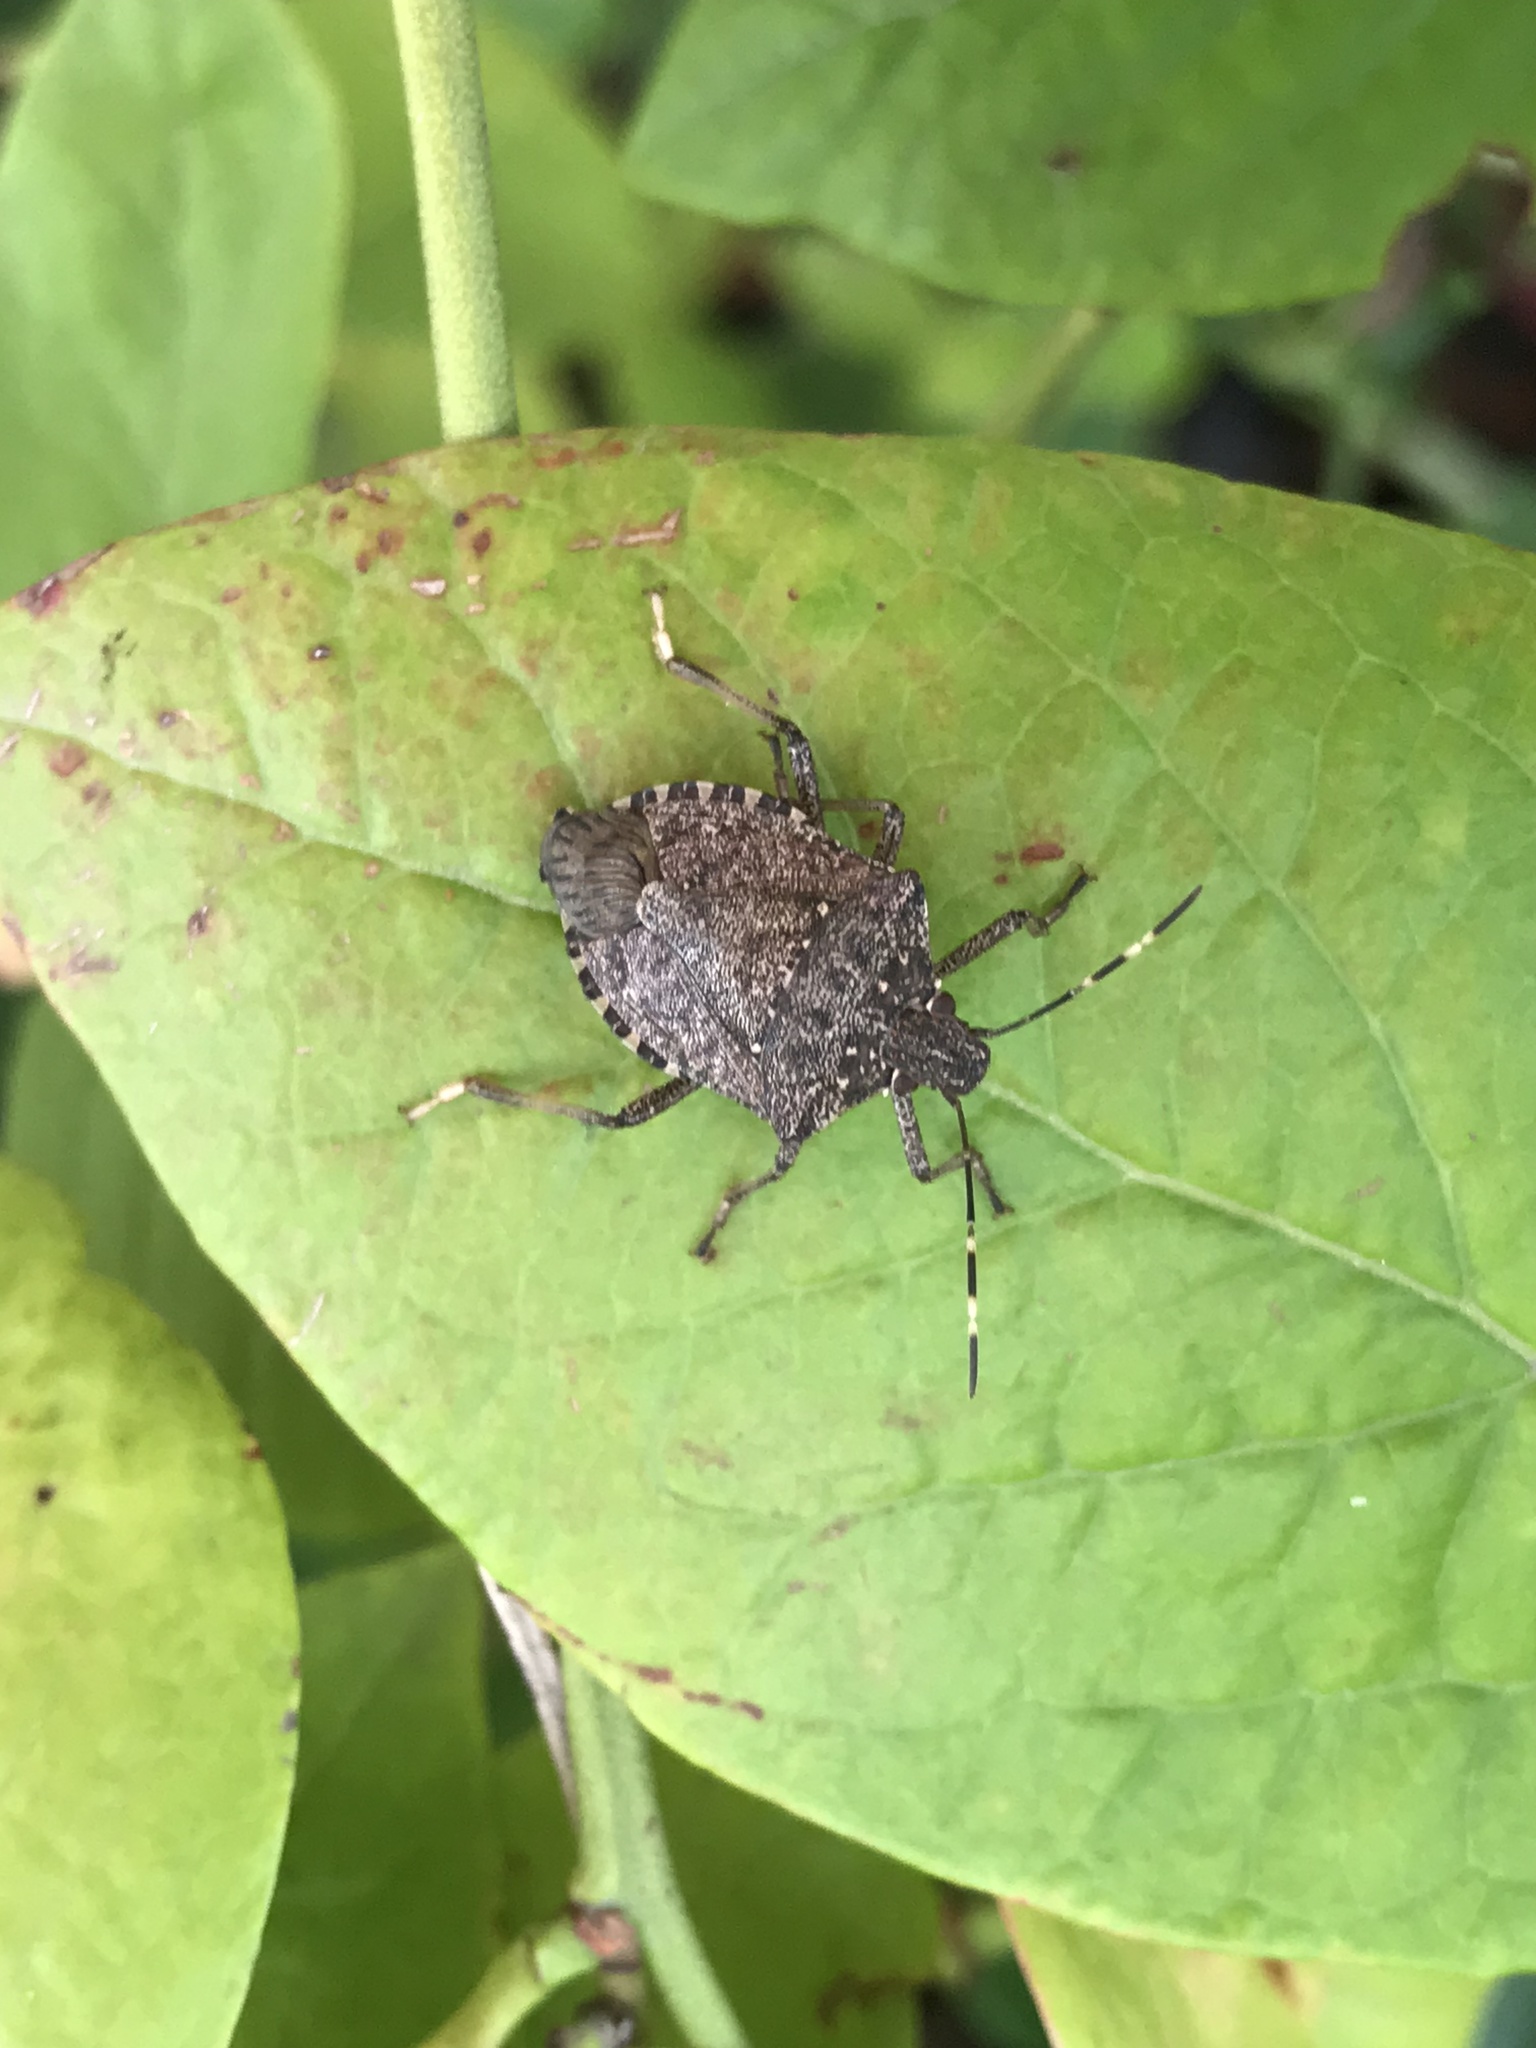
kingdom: Animalia
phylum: Arthropoda
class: Insecta
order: Hemiptera
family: Pentatomidae
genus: Halyomorpha
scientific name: Halyomorpha halys
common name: Brown marmorated stink bug
